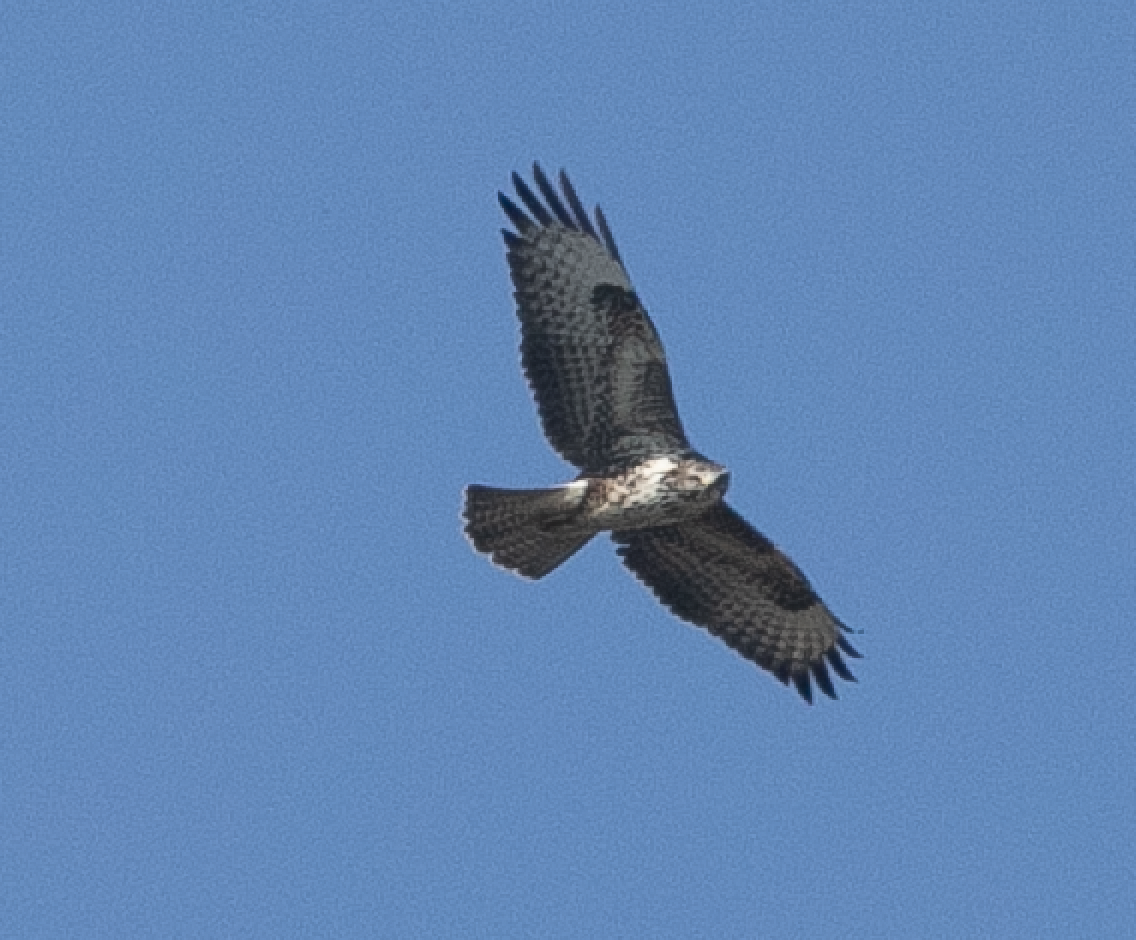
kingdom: Animalia
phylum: Chordata
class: Aves
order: Accipitriformes
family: Accipitridae
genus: Buteo
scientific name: Buteo buteo
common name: Common buzzard
